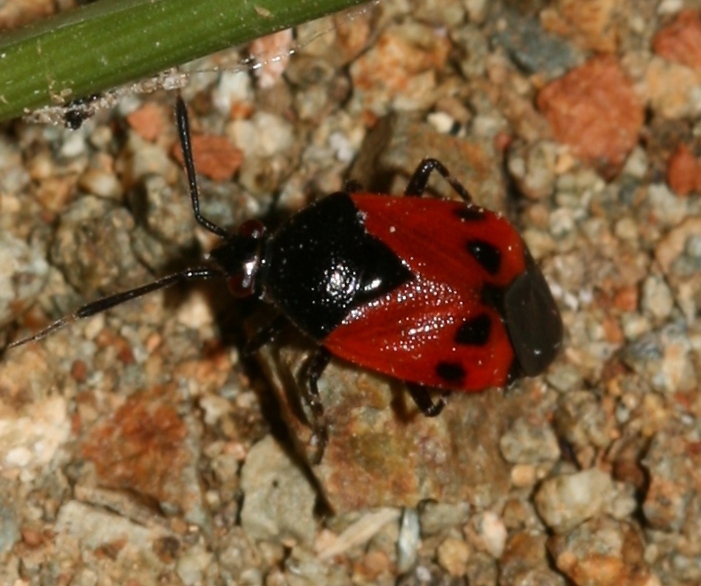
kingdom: Animalia
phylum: Arthropoda
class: Insecta
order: Hemiptera
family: Miridae
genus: Deraeocoris
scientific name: Deraeocoris rutilus
